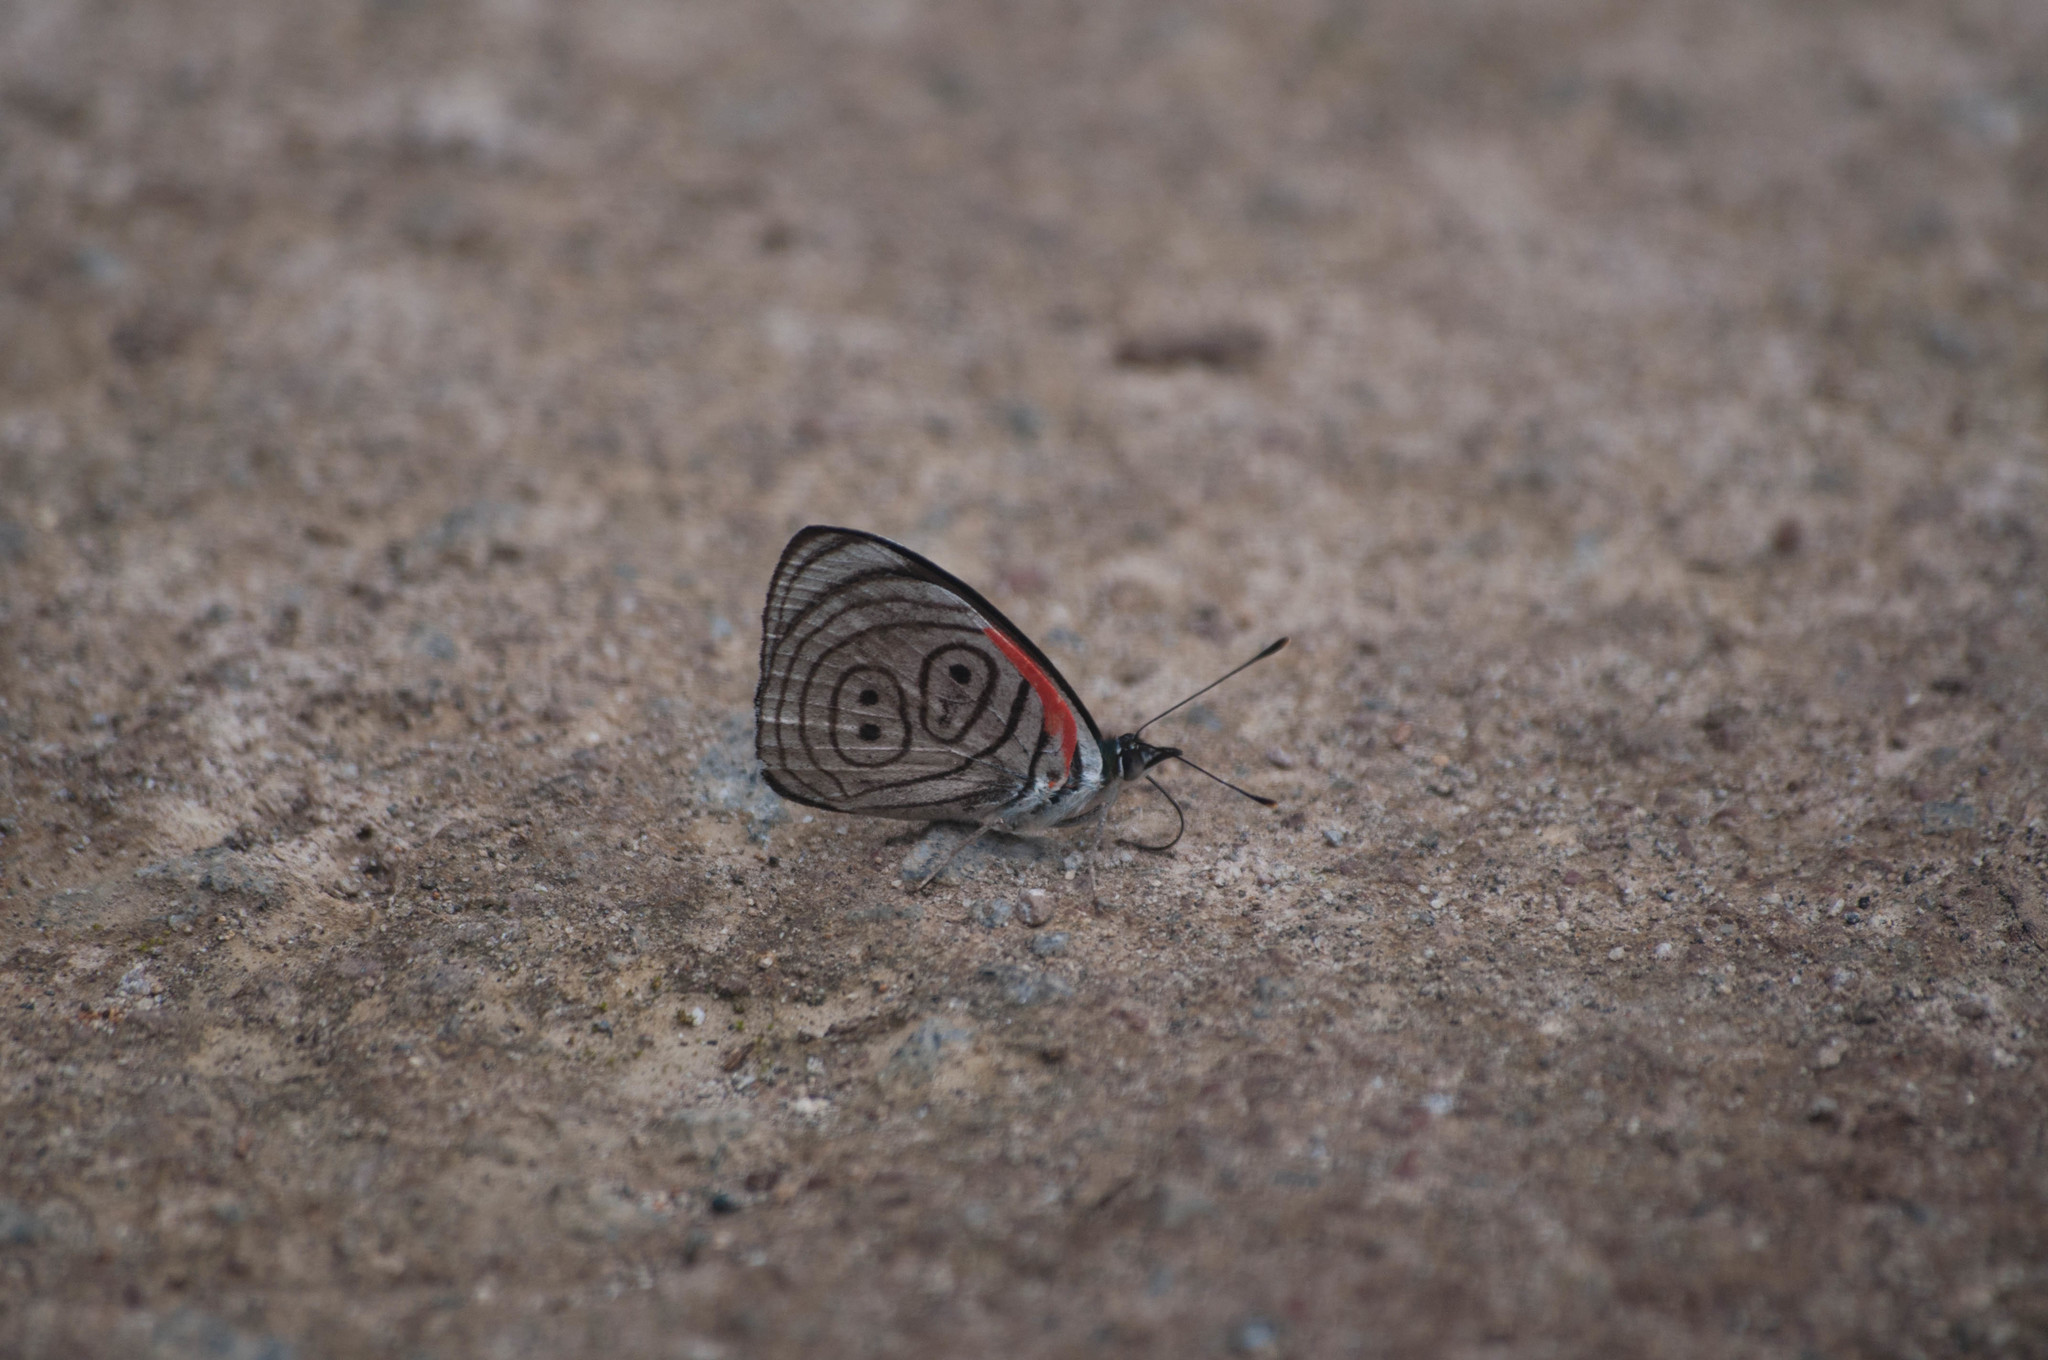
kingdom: Animalia
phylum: Arthropoda
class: Insecta
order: Lepidoptera
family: Nymphalidae
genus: Diaethria
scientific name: Diaethria neglecta
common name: Neglected eighty-eight
